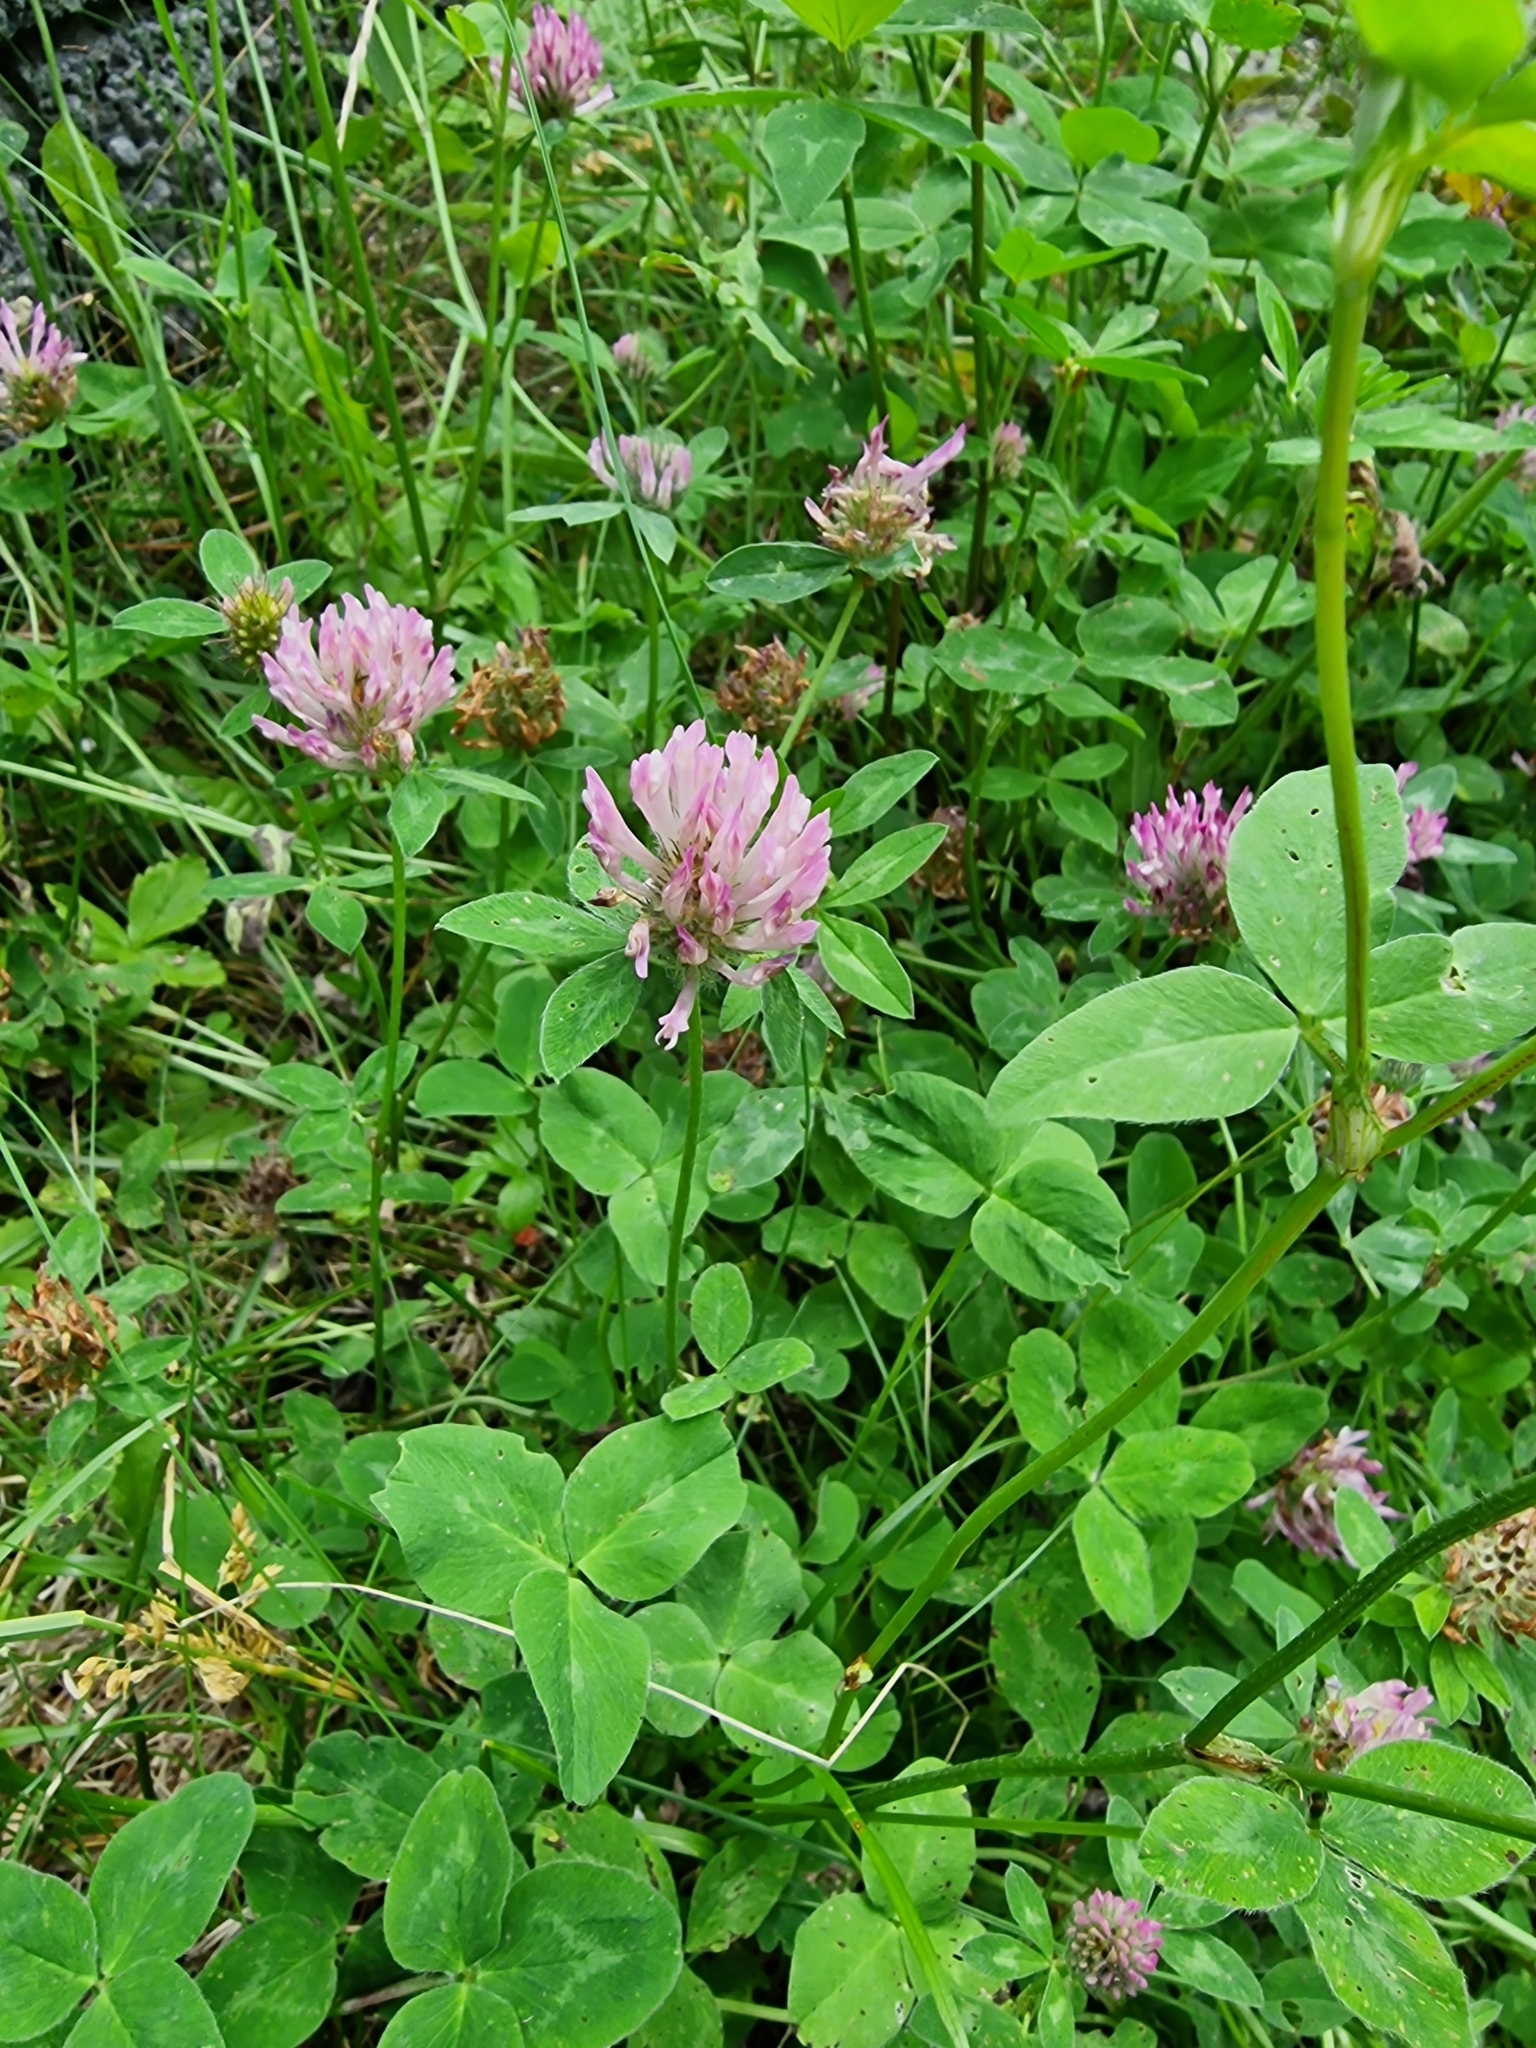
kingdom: Plantae
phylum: Tracheophyta
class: Magnoliopsida
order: Fabales
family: Fabaceae
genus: Trifolium
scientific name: Trifolium pratense
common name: Red clover
